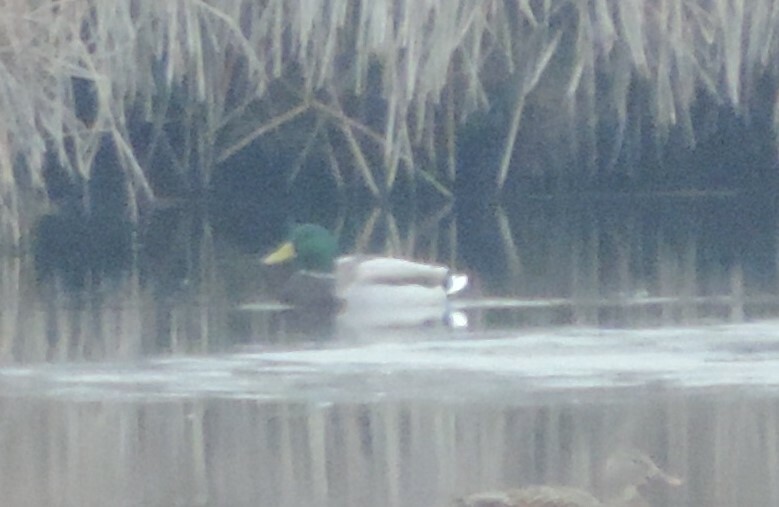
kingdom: Animalia
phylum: Chordata
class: Aves
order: Anseriformes
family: Anatidae
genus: Anas
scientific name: Anas platyrhynchos
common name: Mallard
